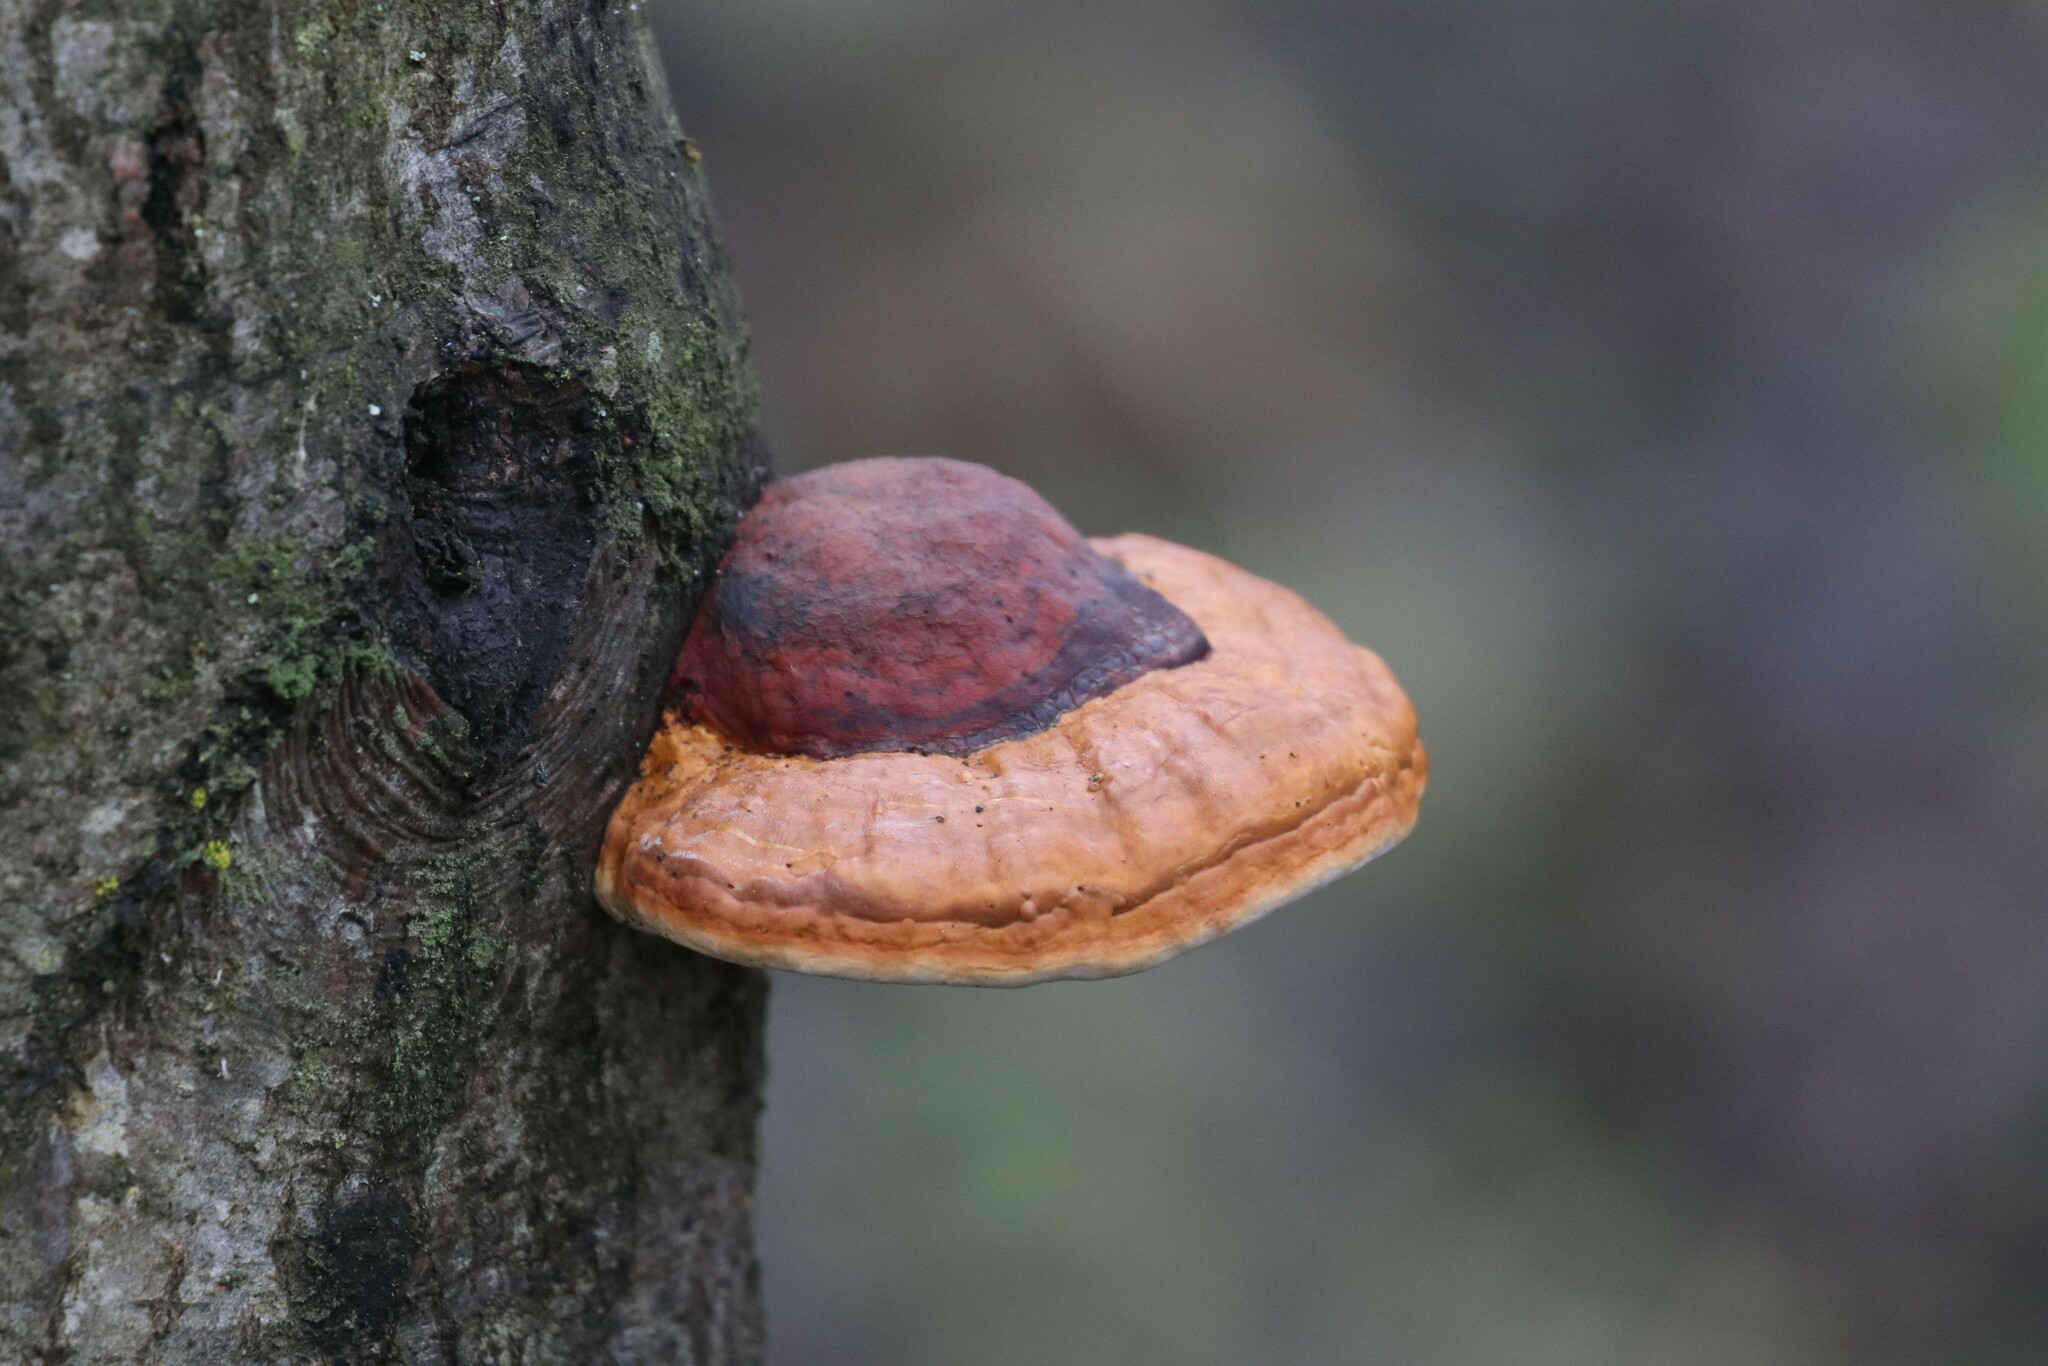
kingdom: Fungi
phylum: Basidiomycota
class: Agaricomycetes
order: Polyporales
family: Fomitopsidaceae
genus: Fomitopsis
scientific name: Fomitopsis pinicola
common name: Red-belted bracket
